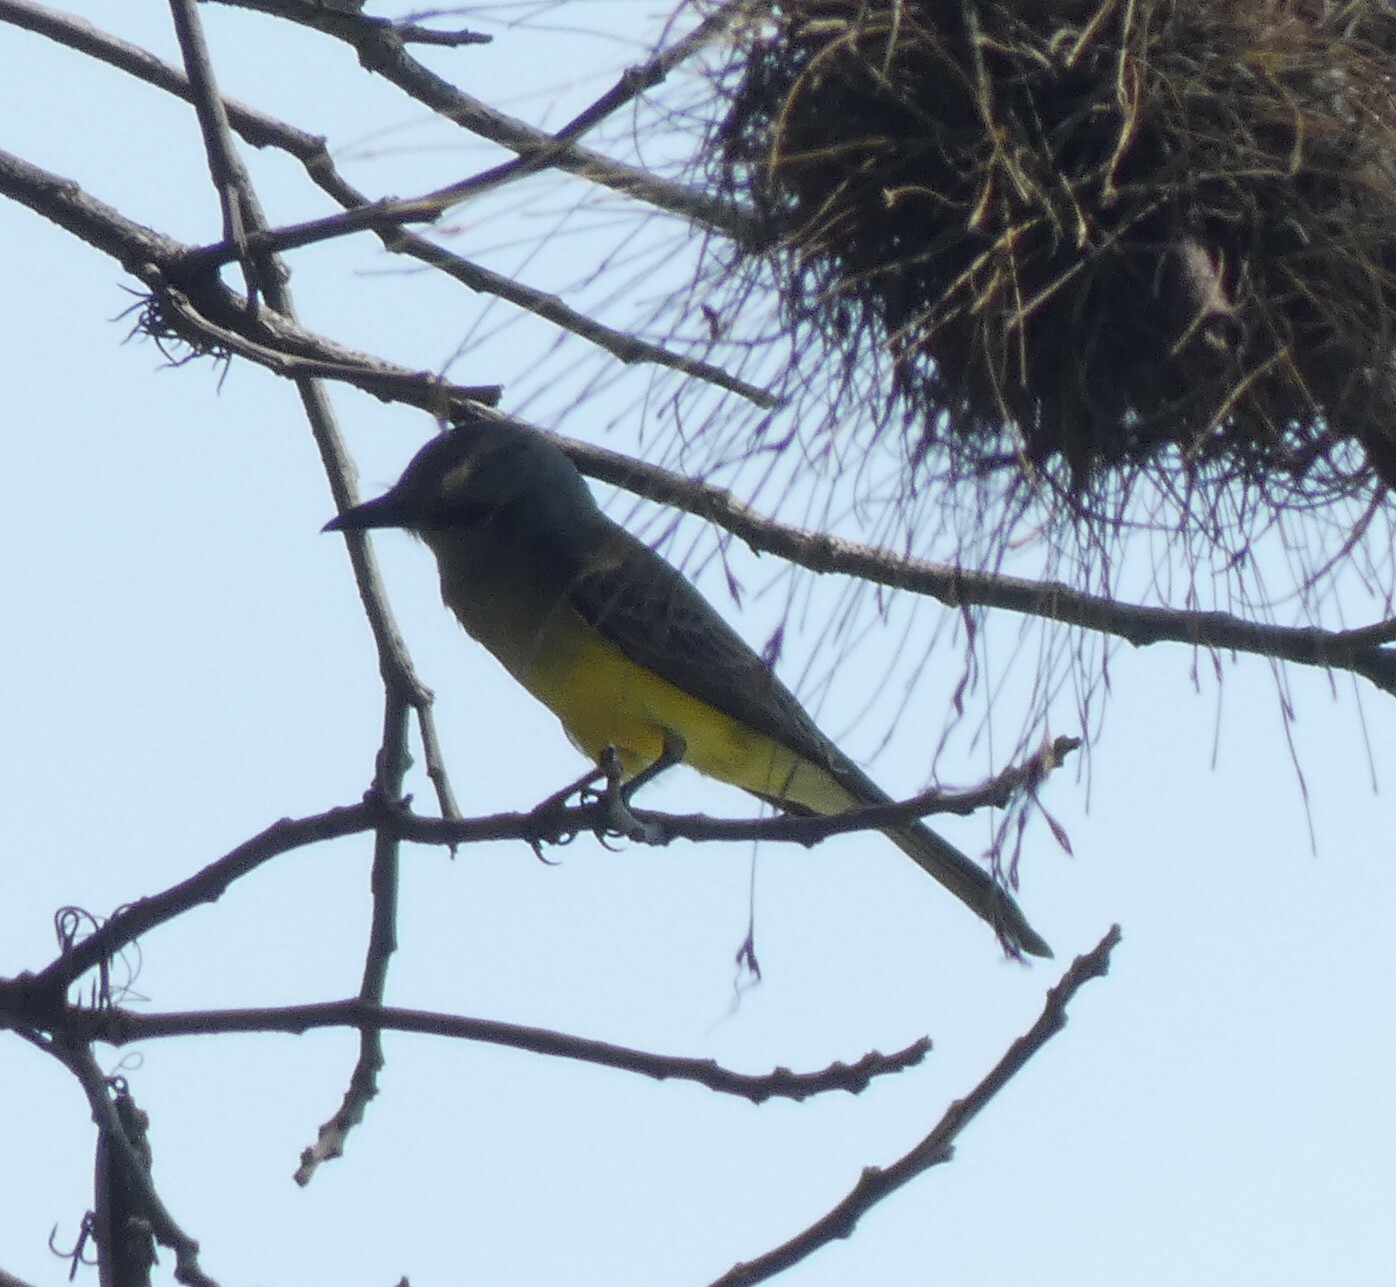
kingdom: Animalia
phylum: Chordata
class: Aves
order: Passeriformes
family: Tyrannidae
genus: Tyrannus
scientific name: Tyrannus melancholicus
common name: Tropical kingbird
